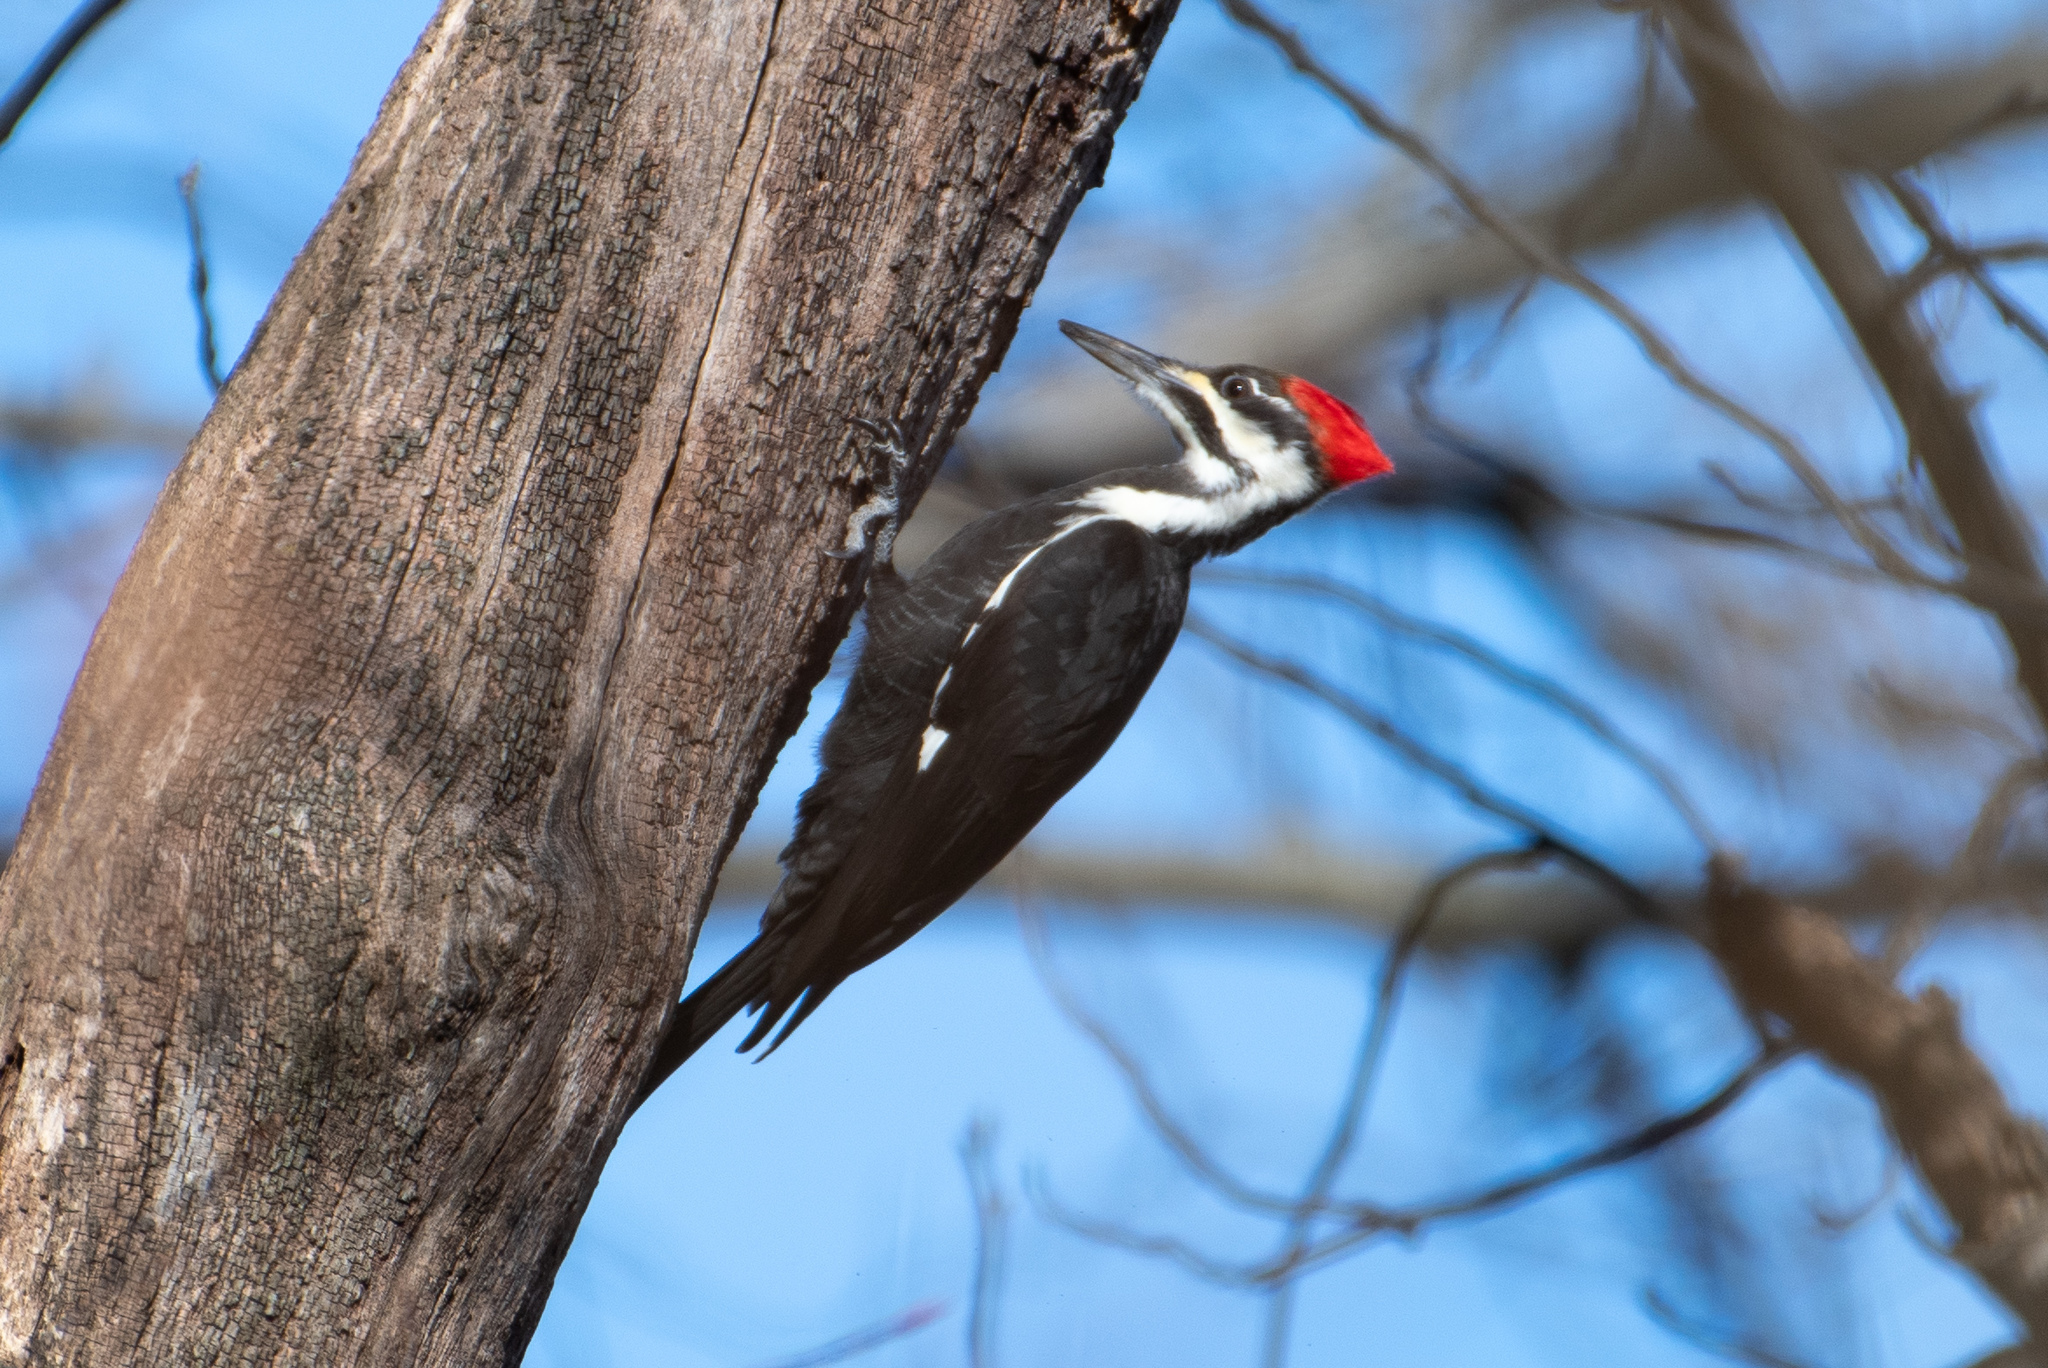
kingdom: Animalia
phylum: Chordata
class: Aves
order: Piciformes
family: Picidae
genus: Dryocopus
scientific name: Dryocopus pileatus
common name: Pileated woodpecker
